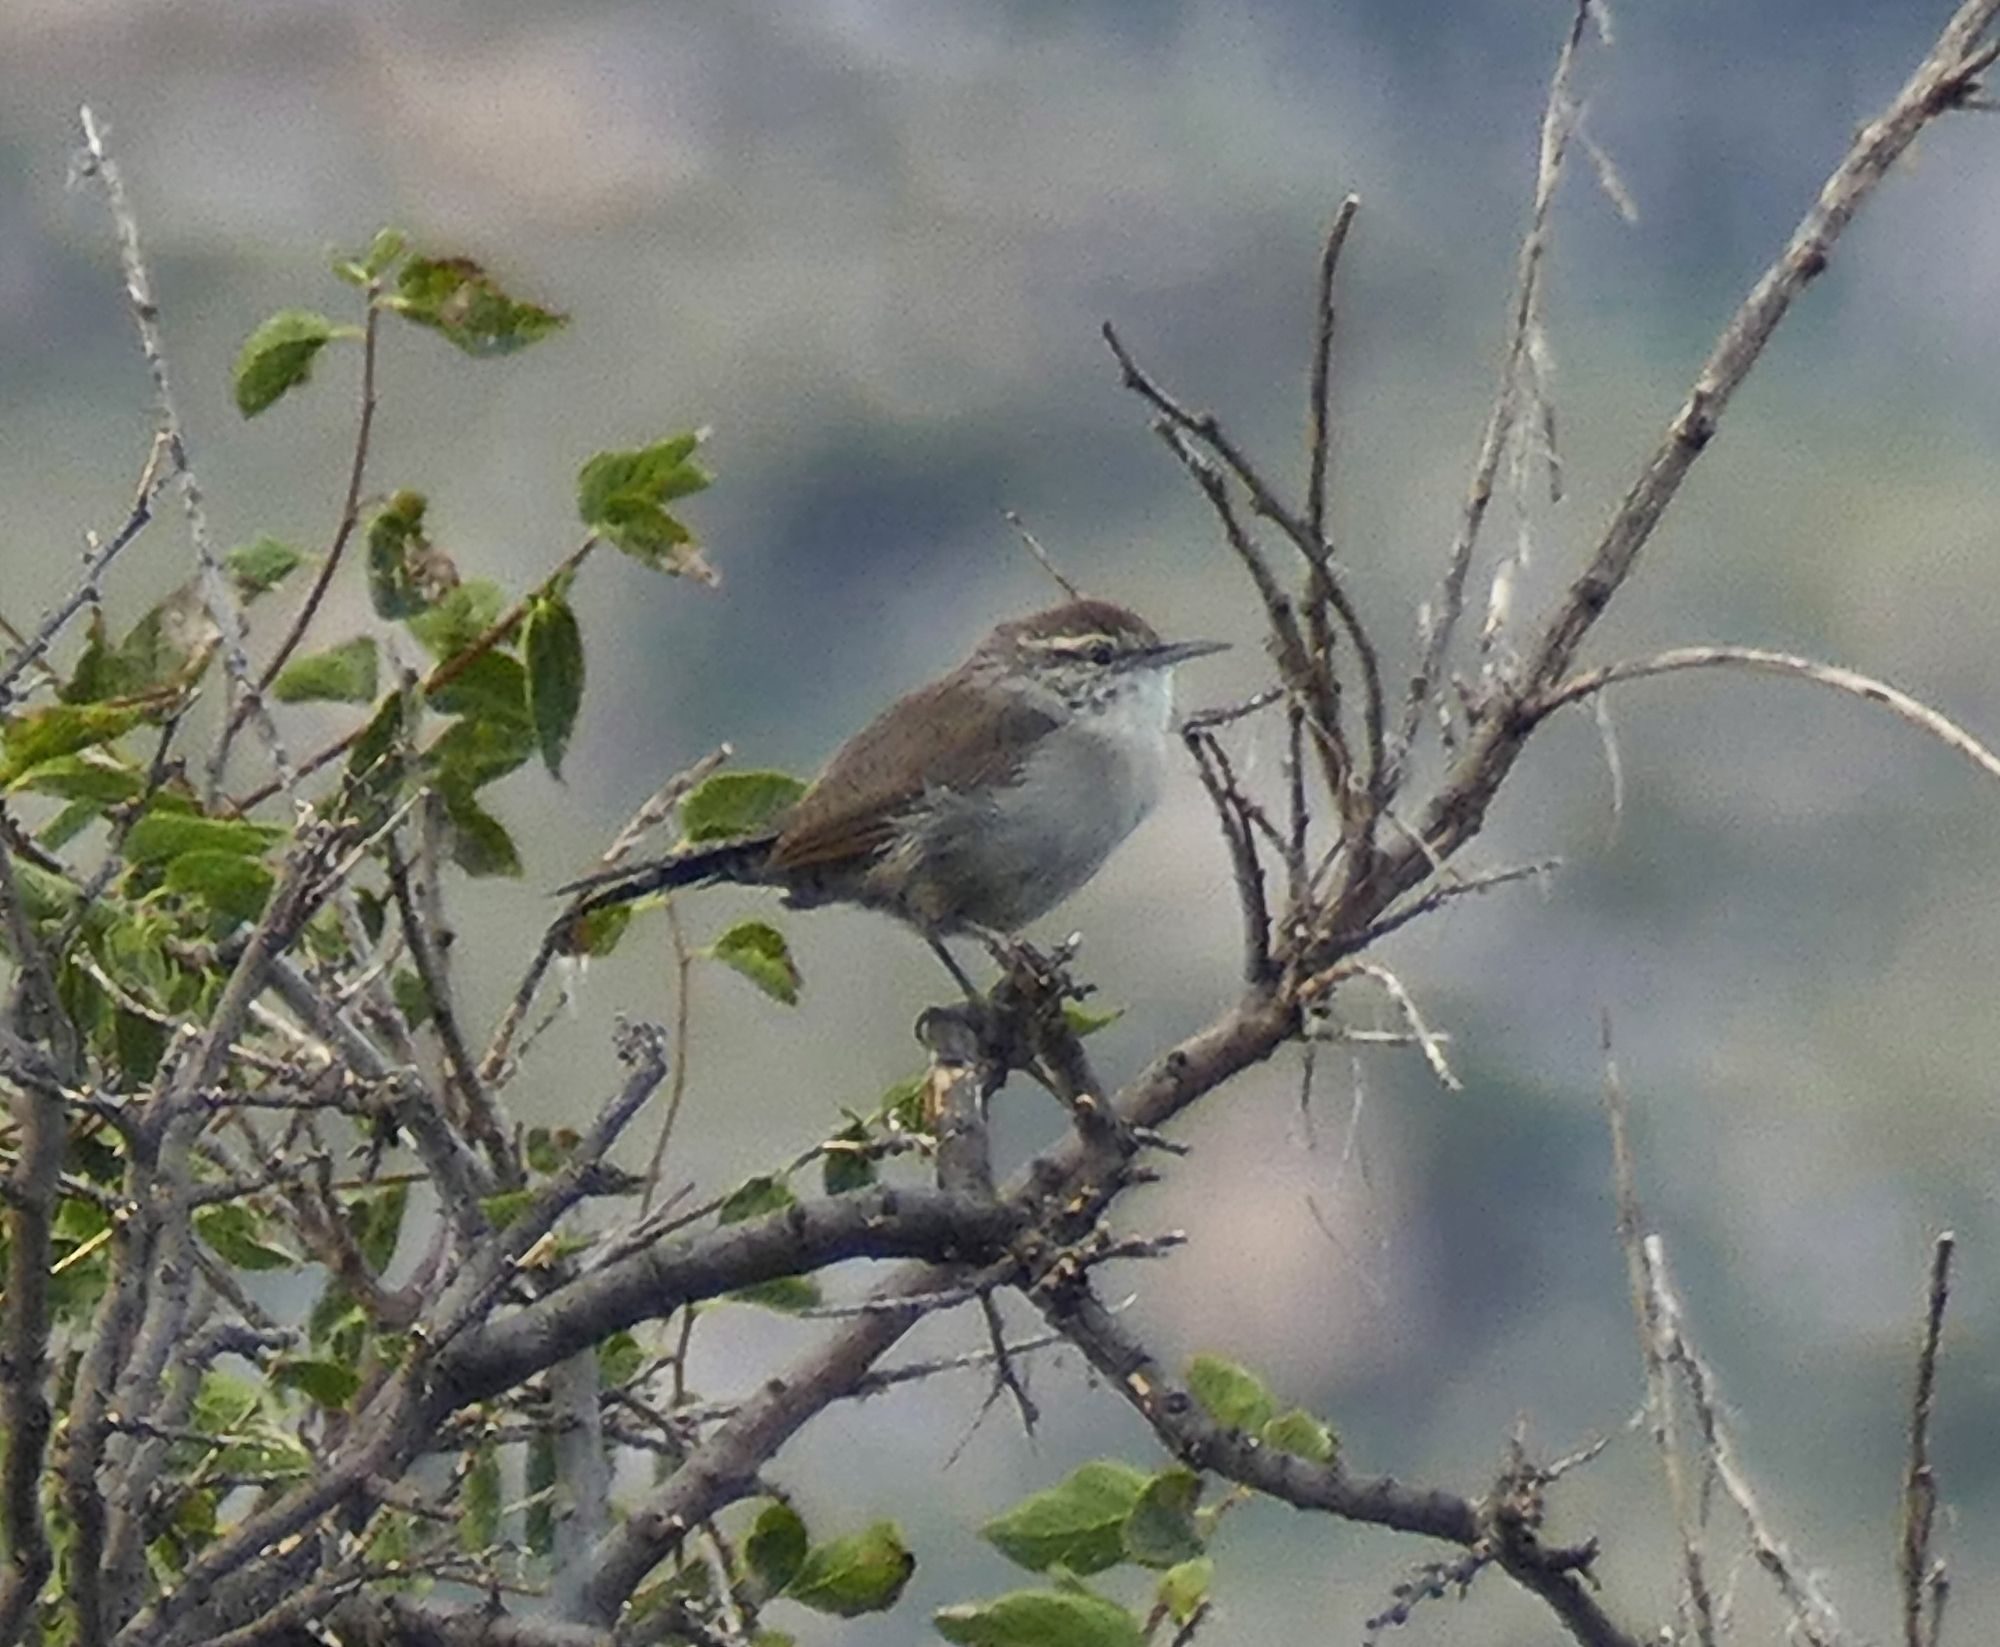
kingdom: Animalia
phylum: Chordata
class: Aves
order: Passeriformes
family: Troglodytidae
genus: Thryomanes
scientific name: Thryomanes bewickii
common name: Bewick's wren
